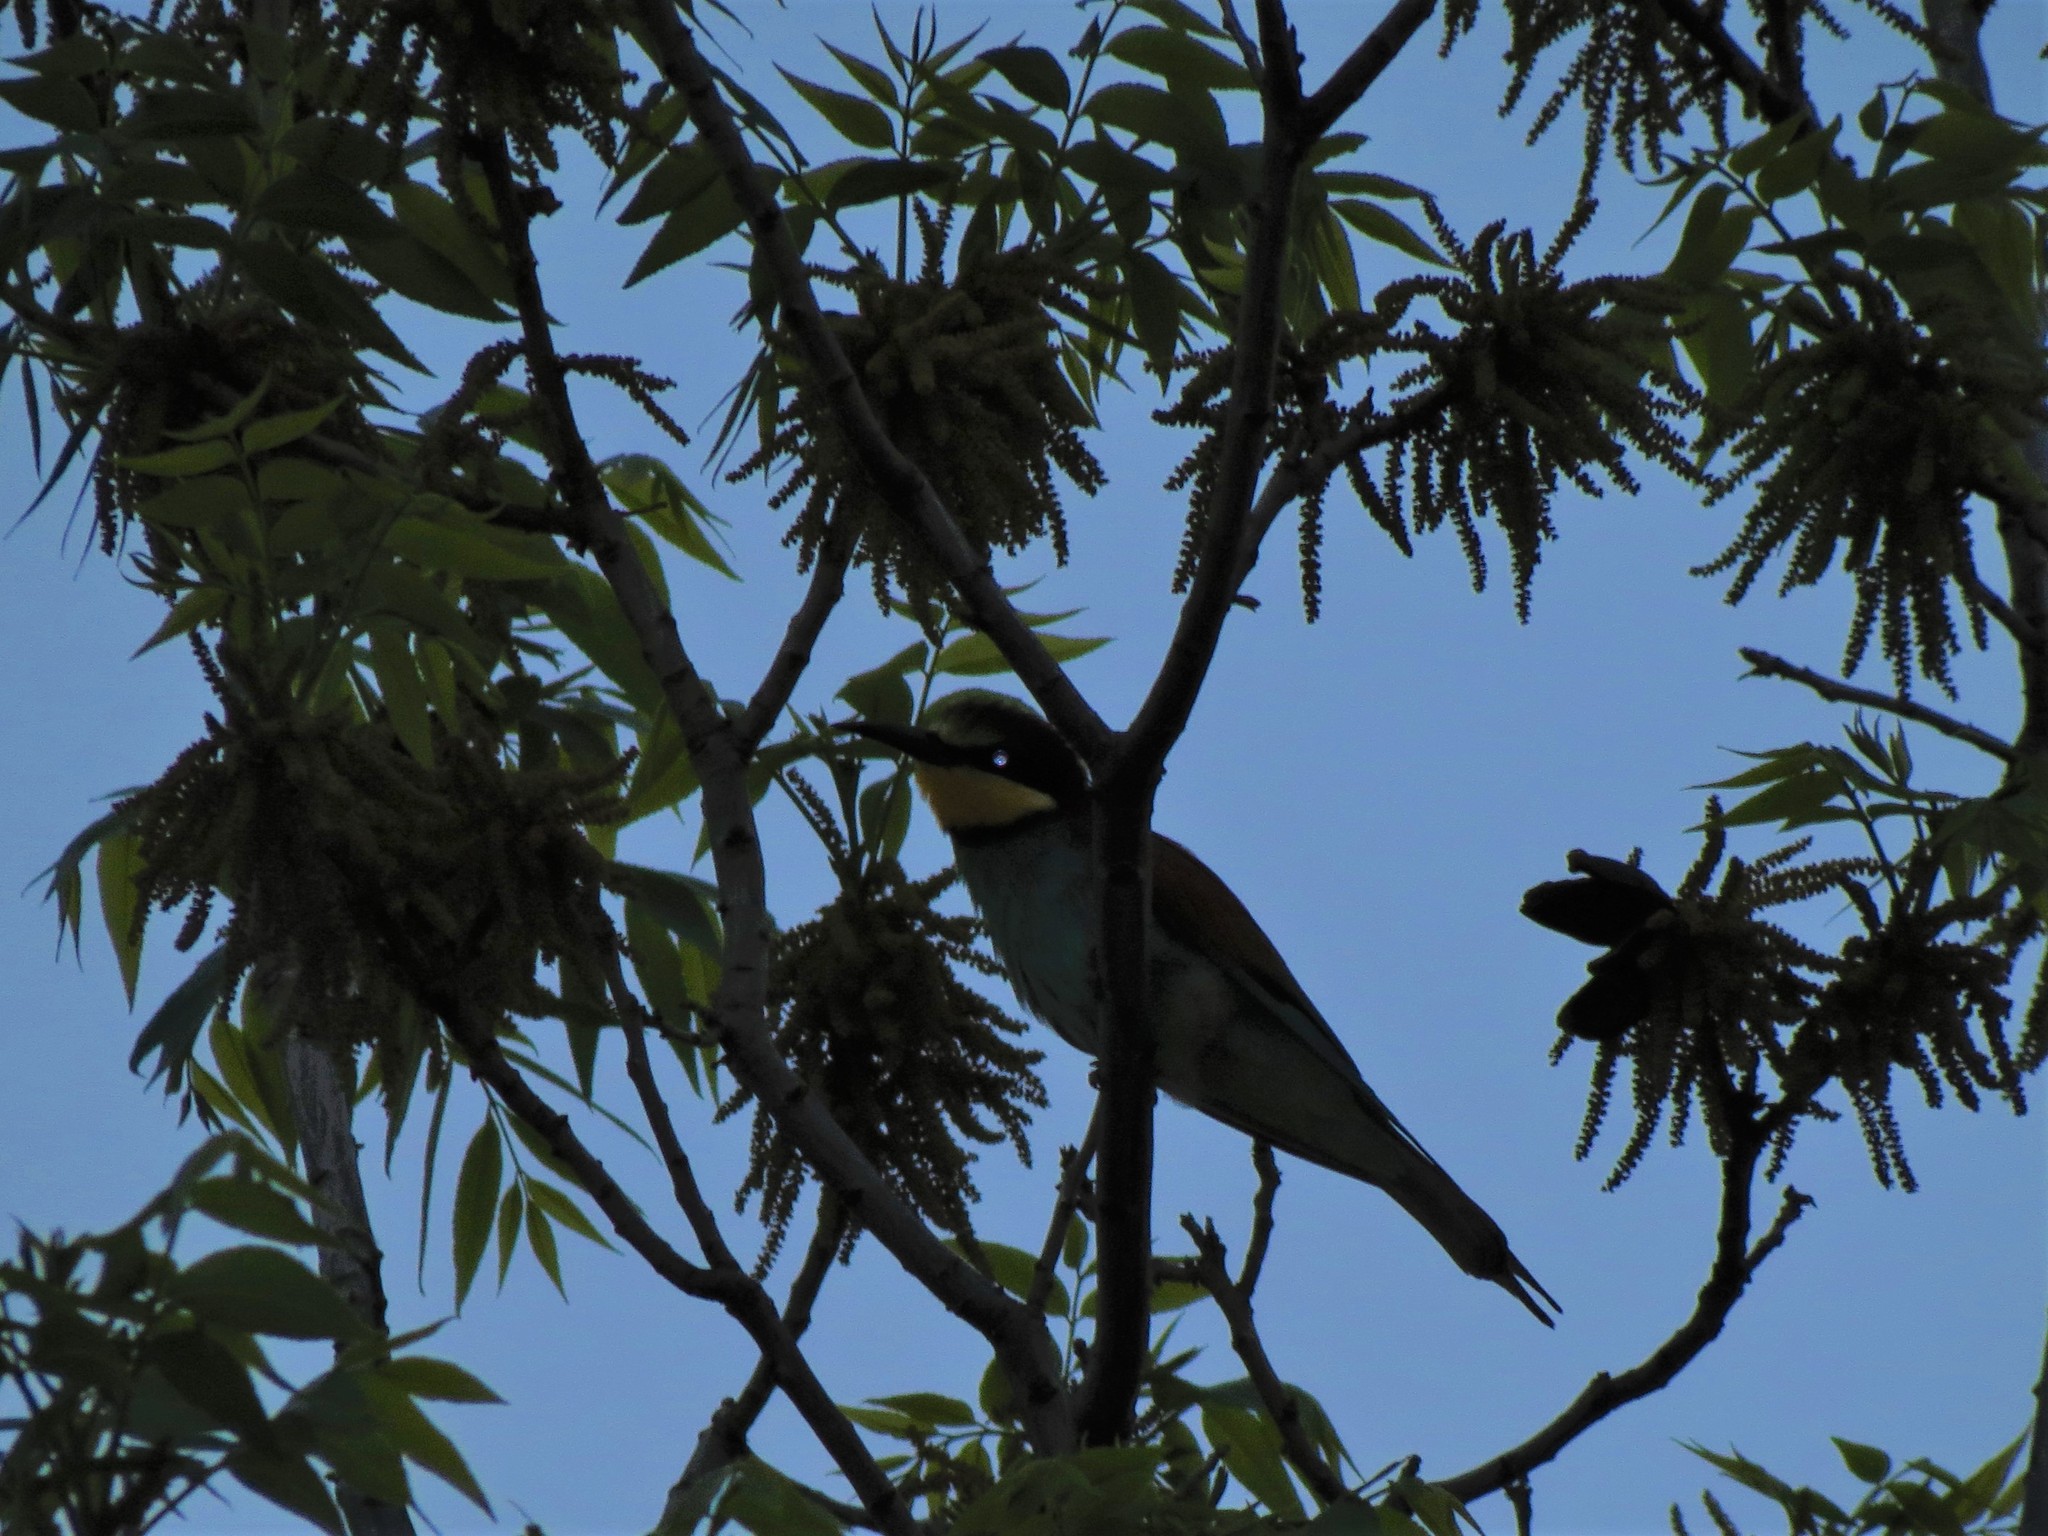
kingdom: Animalia
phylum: Chordata
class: Aves
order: Coraciiformes
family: Meropidae
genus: Merops
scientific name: Merops apiaster
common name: European bee-eater
